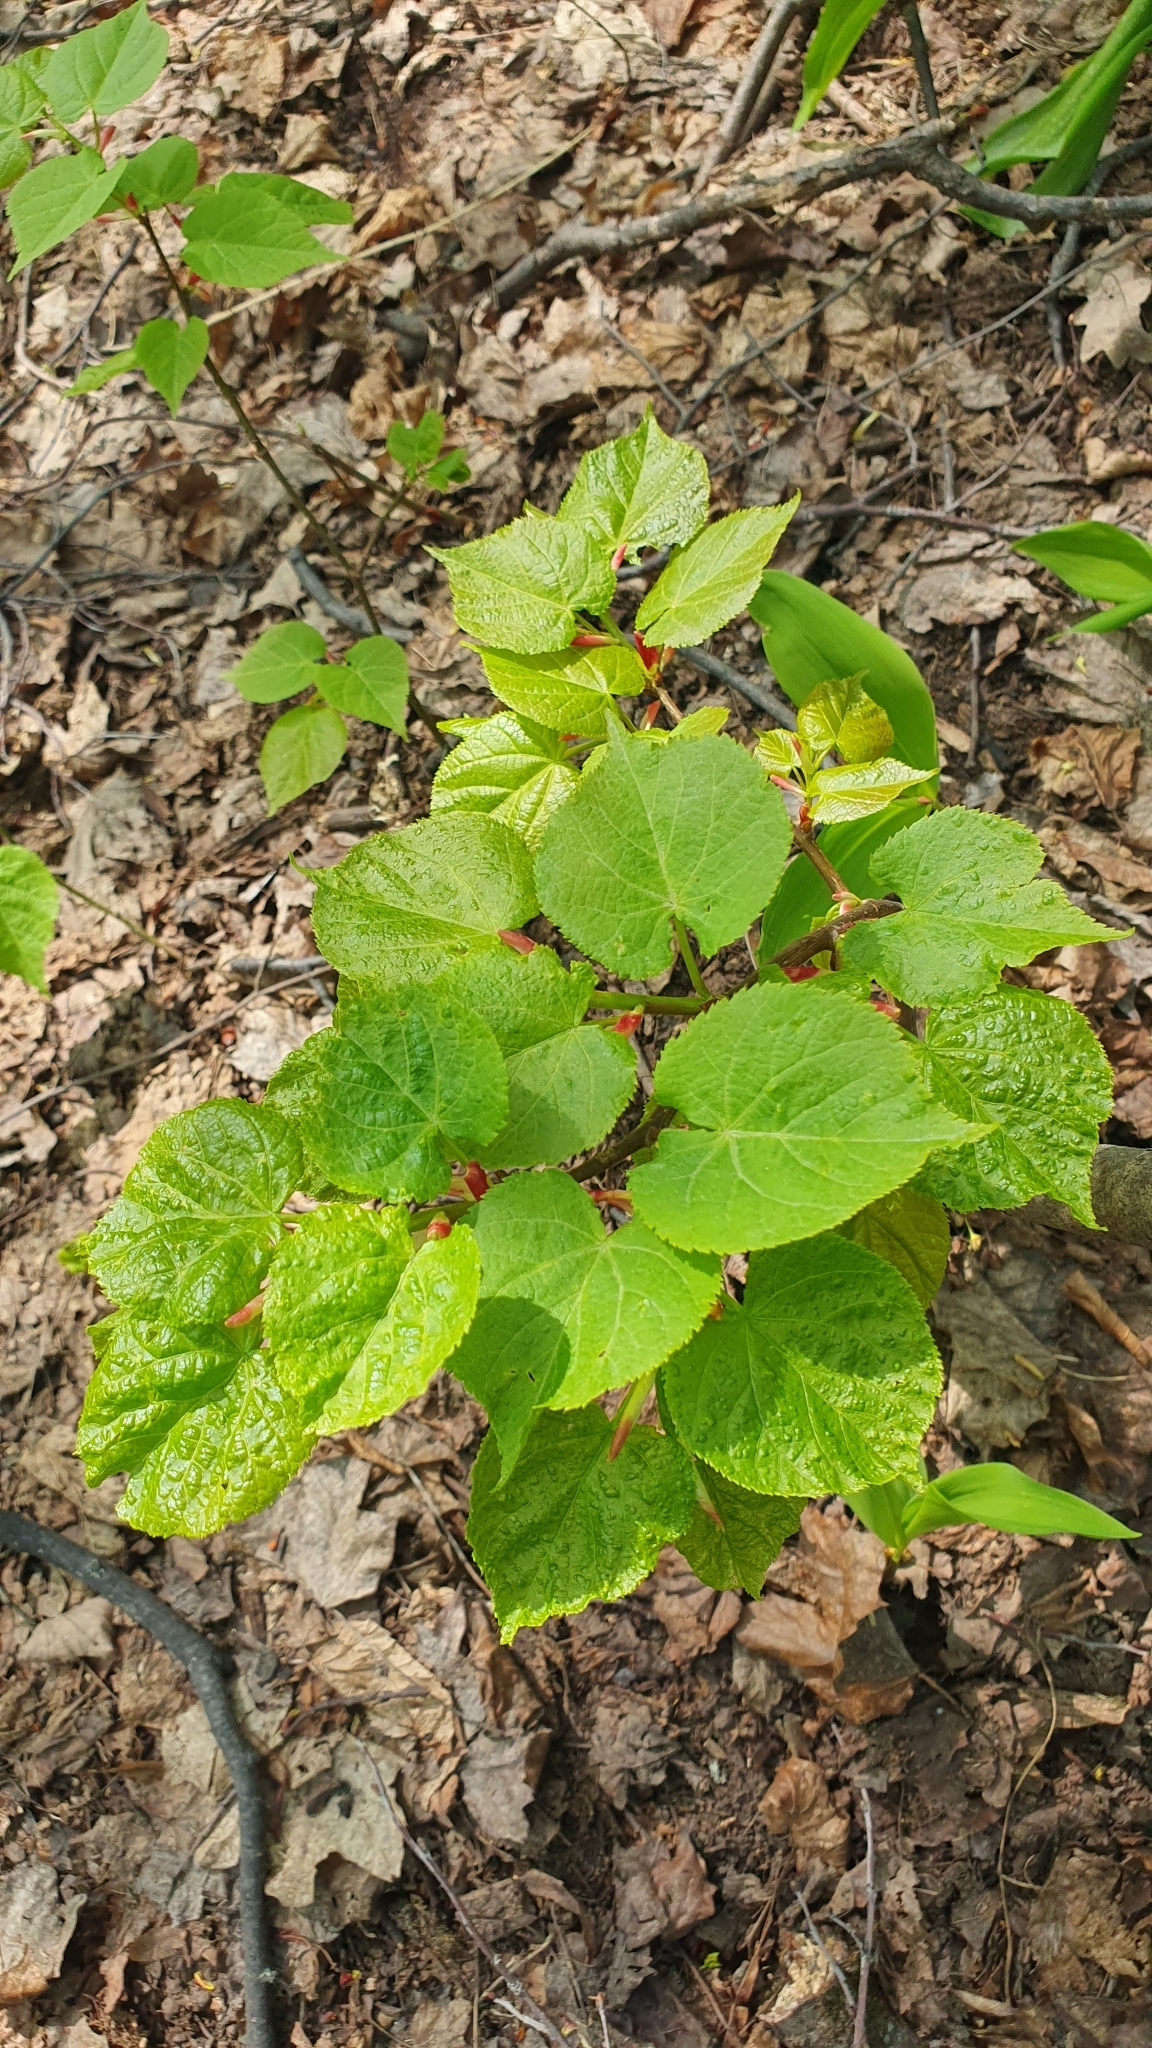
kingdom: Plantae
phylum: Tracheophyta
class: Magnoliopsida
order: Malvales
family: Malvaceae
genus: Tilia
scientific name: Tilia cordata
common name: Small-leaved lime
